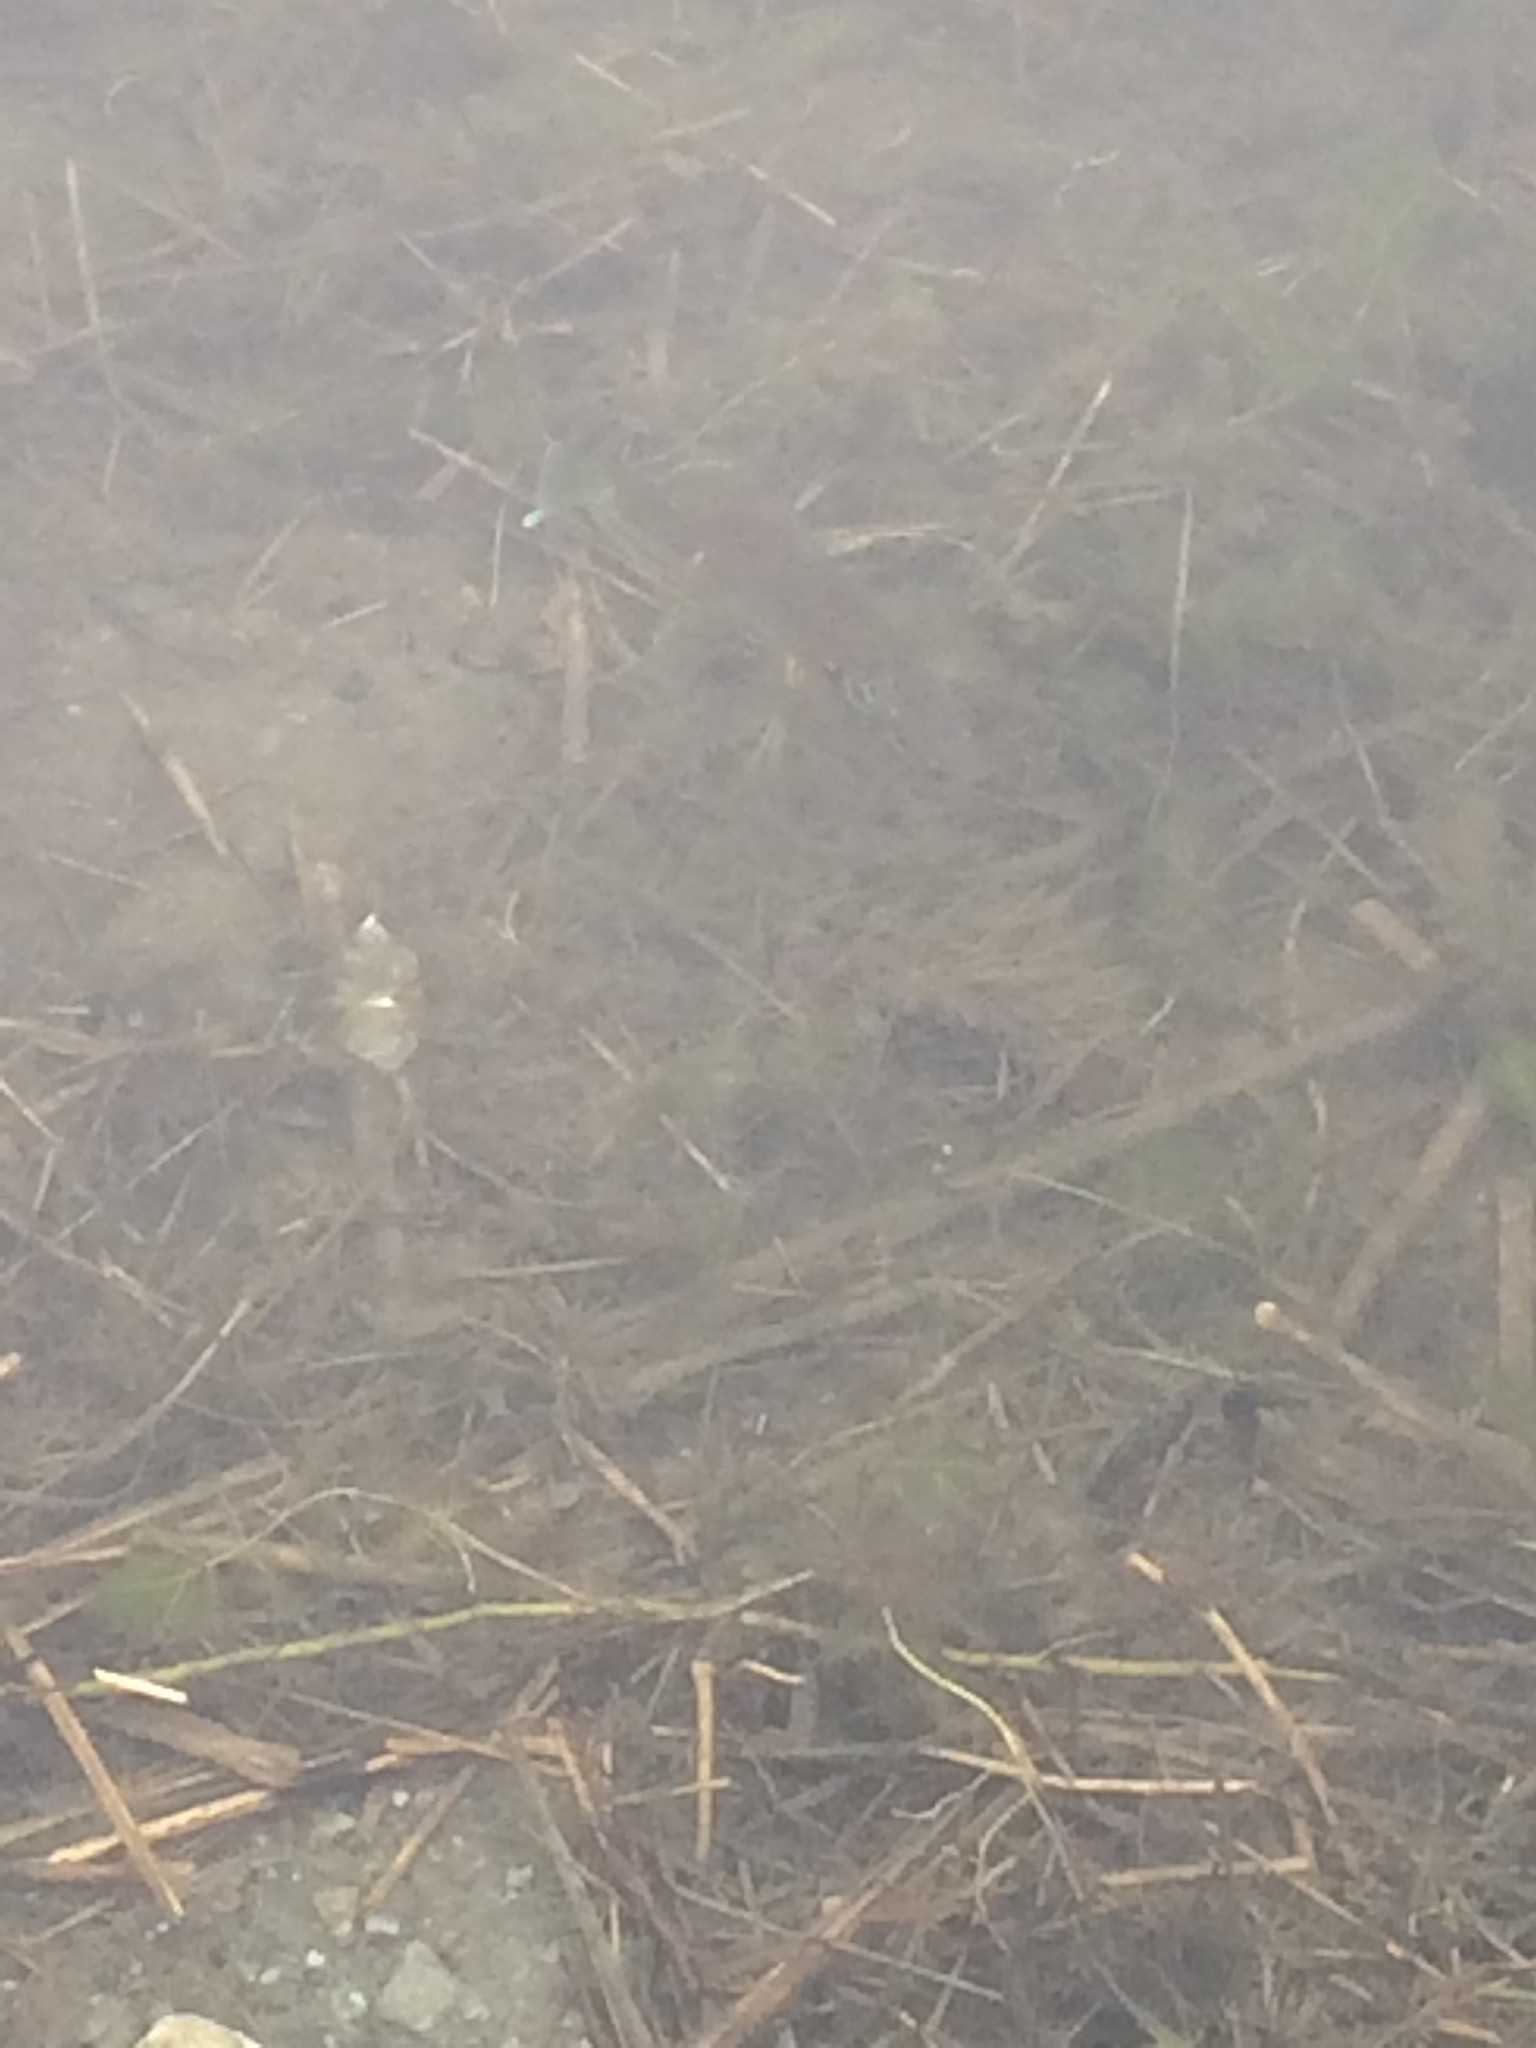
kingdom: Animalia
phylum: Chordata
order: Perciformes
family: Centrarchidae
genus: Lepomis
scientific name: Lepomis gibbosus
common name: Pumpkinseed
